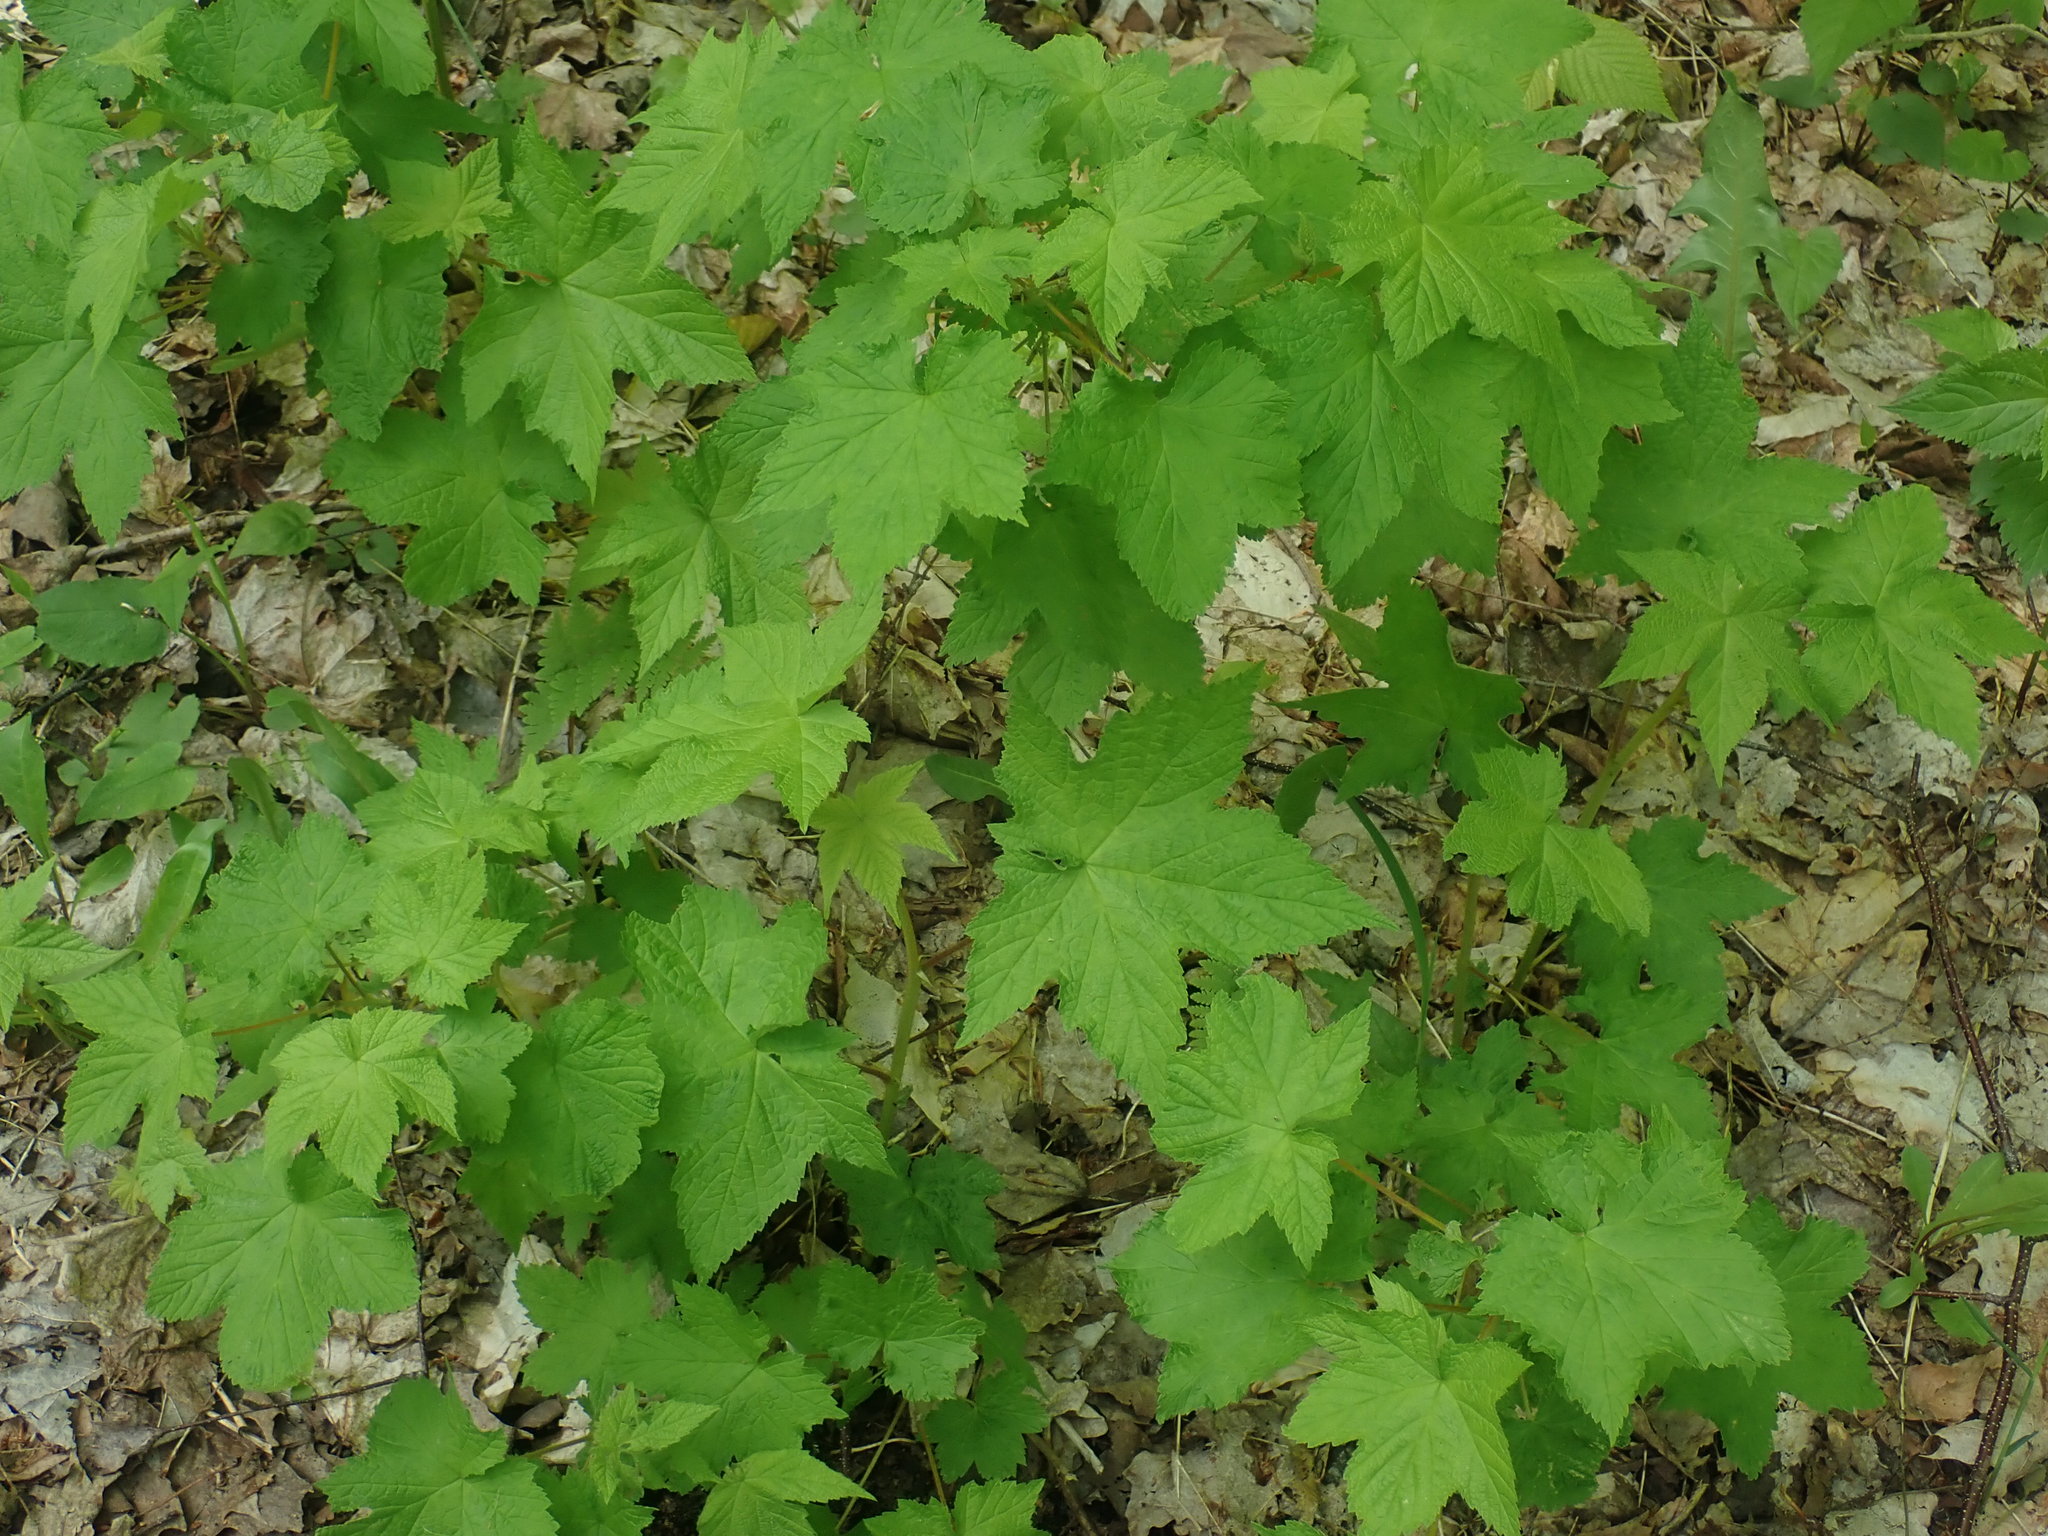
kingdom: Plantae
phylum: Tracheophyta
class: Magnoliopsida
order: Rosales
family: Rosaceae
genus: Rubus
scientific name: Rubus odoratus
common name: Purple-flowered raspberry
